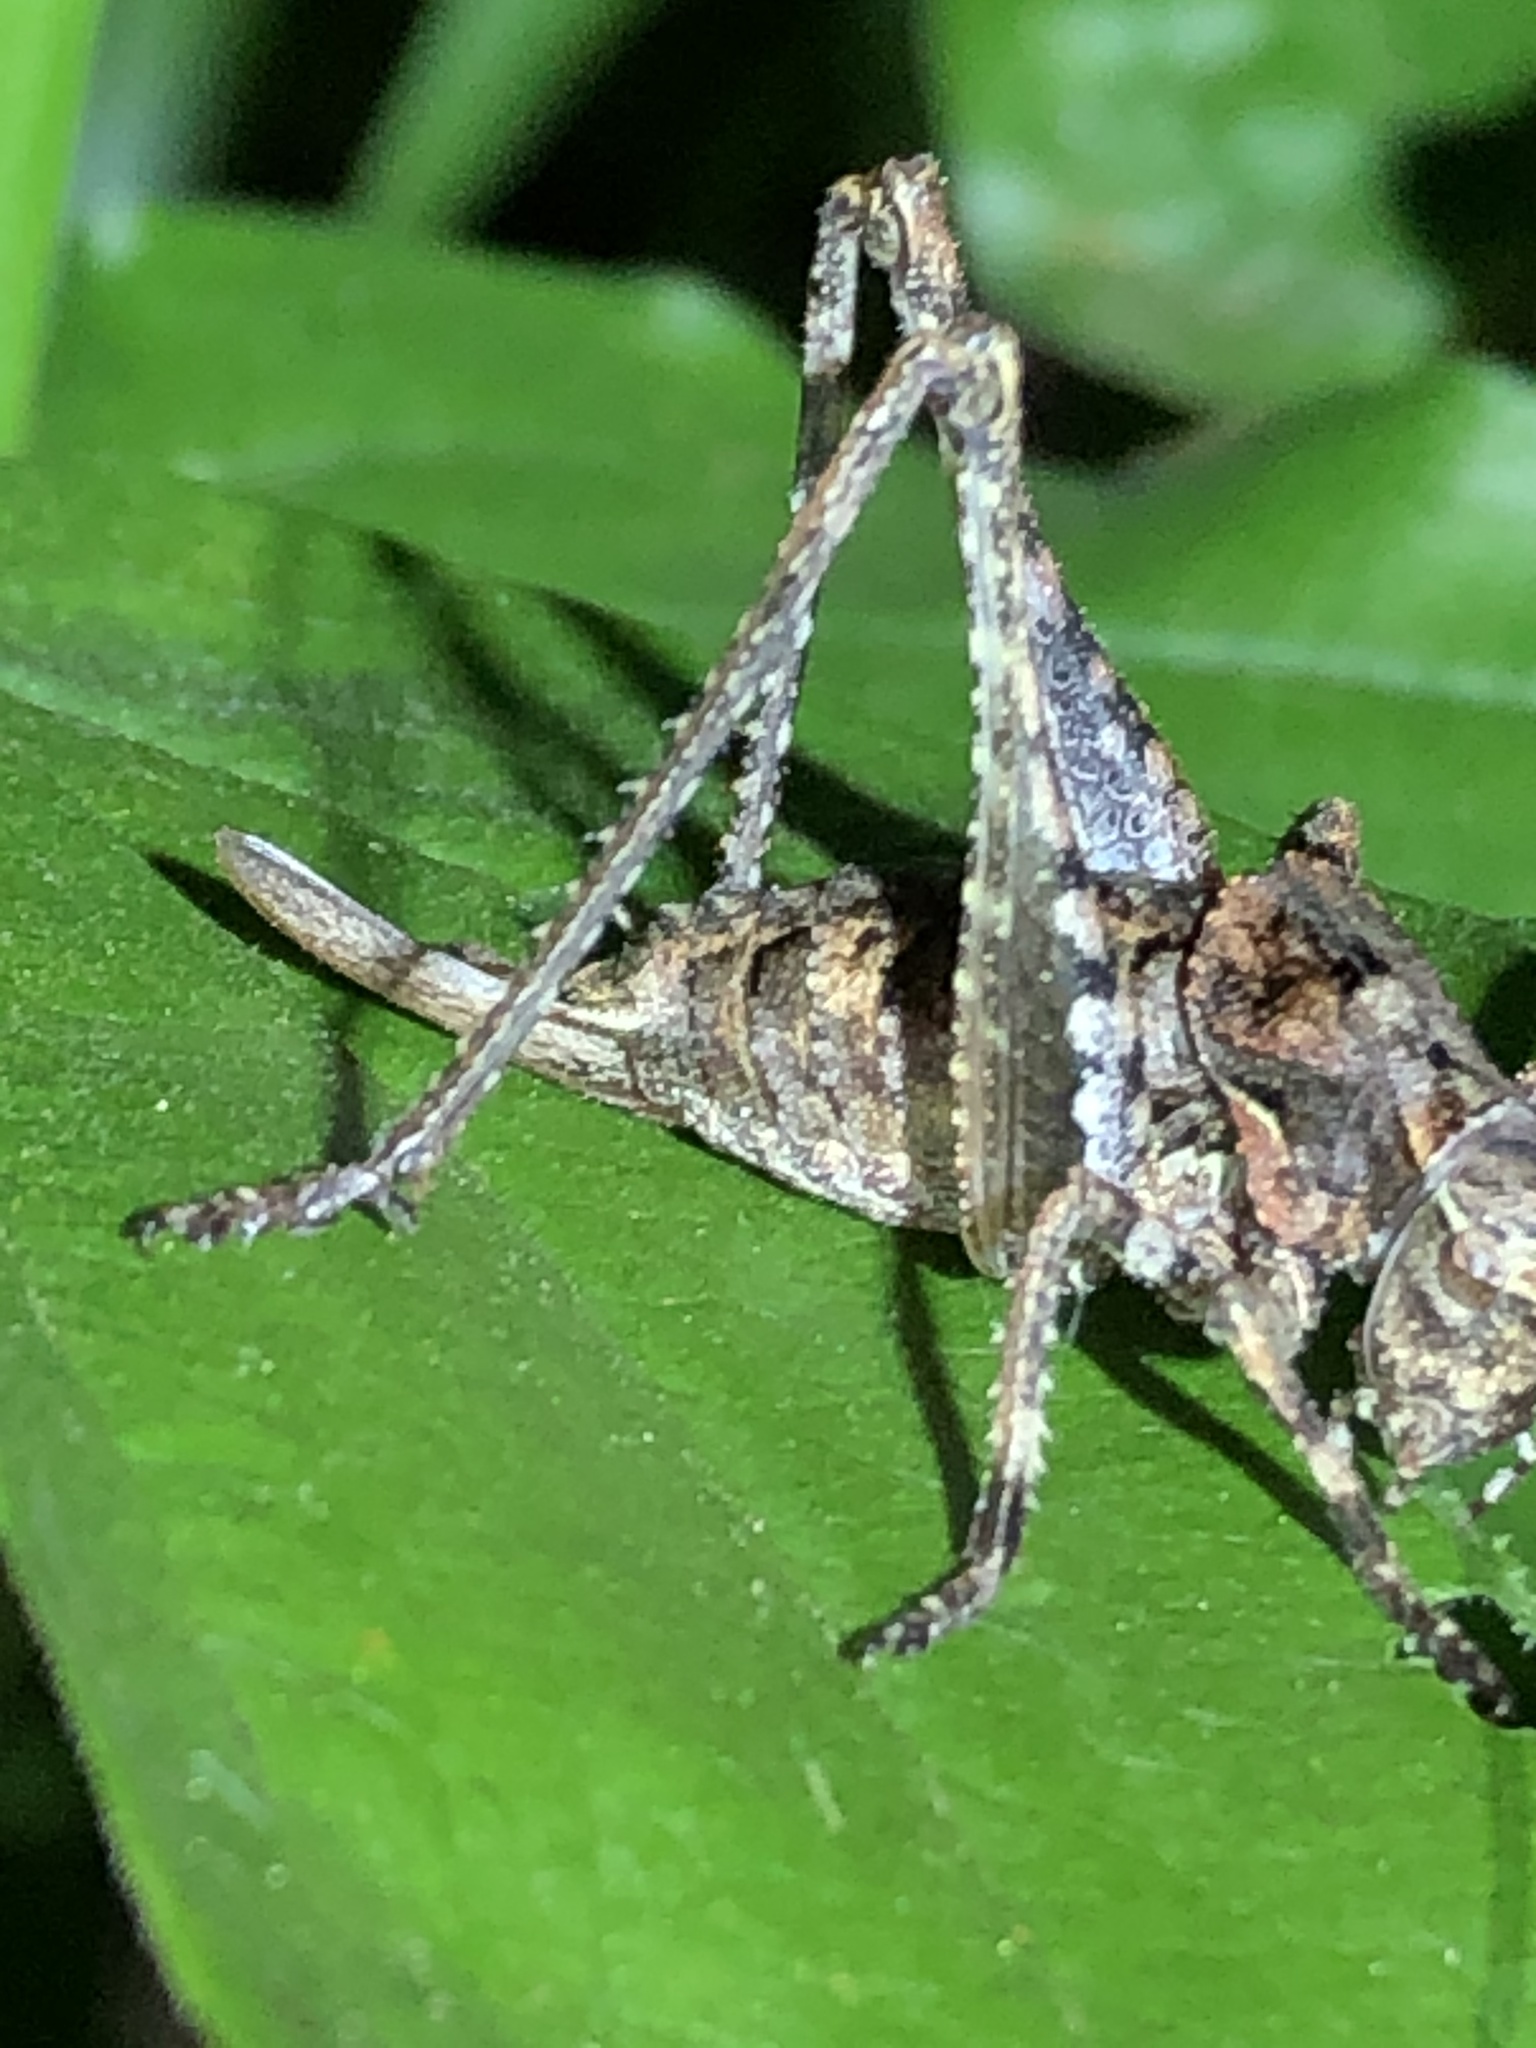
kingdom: Animalia
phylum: Arthropoda
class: Insecta
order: Orthoptera
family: Tettigoniidae
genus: Neduba
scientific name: Neduba steindachneri
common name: Steindachner's shieldback
